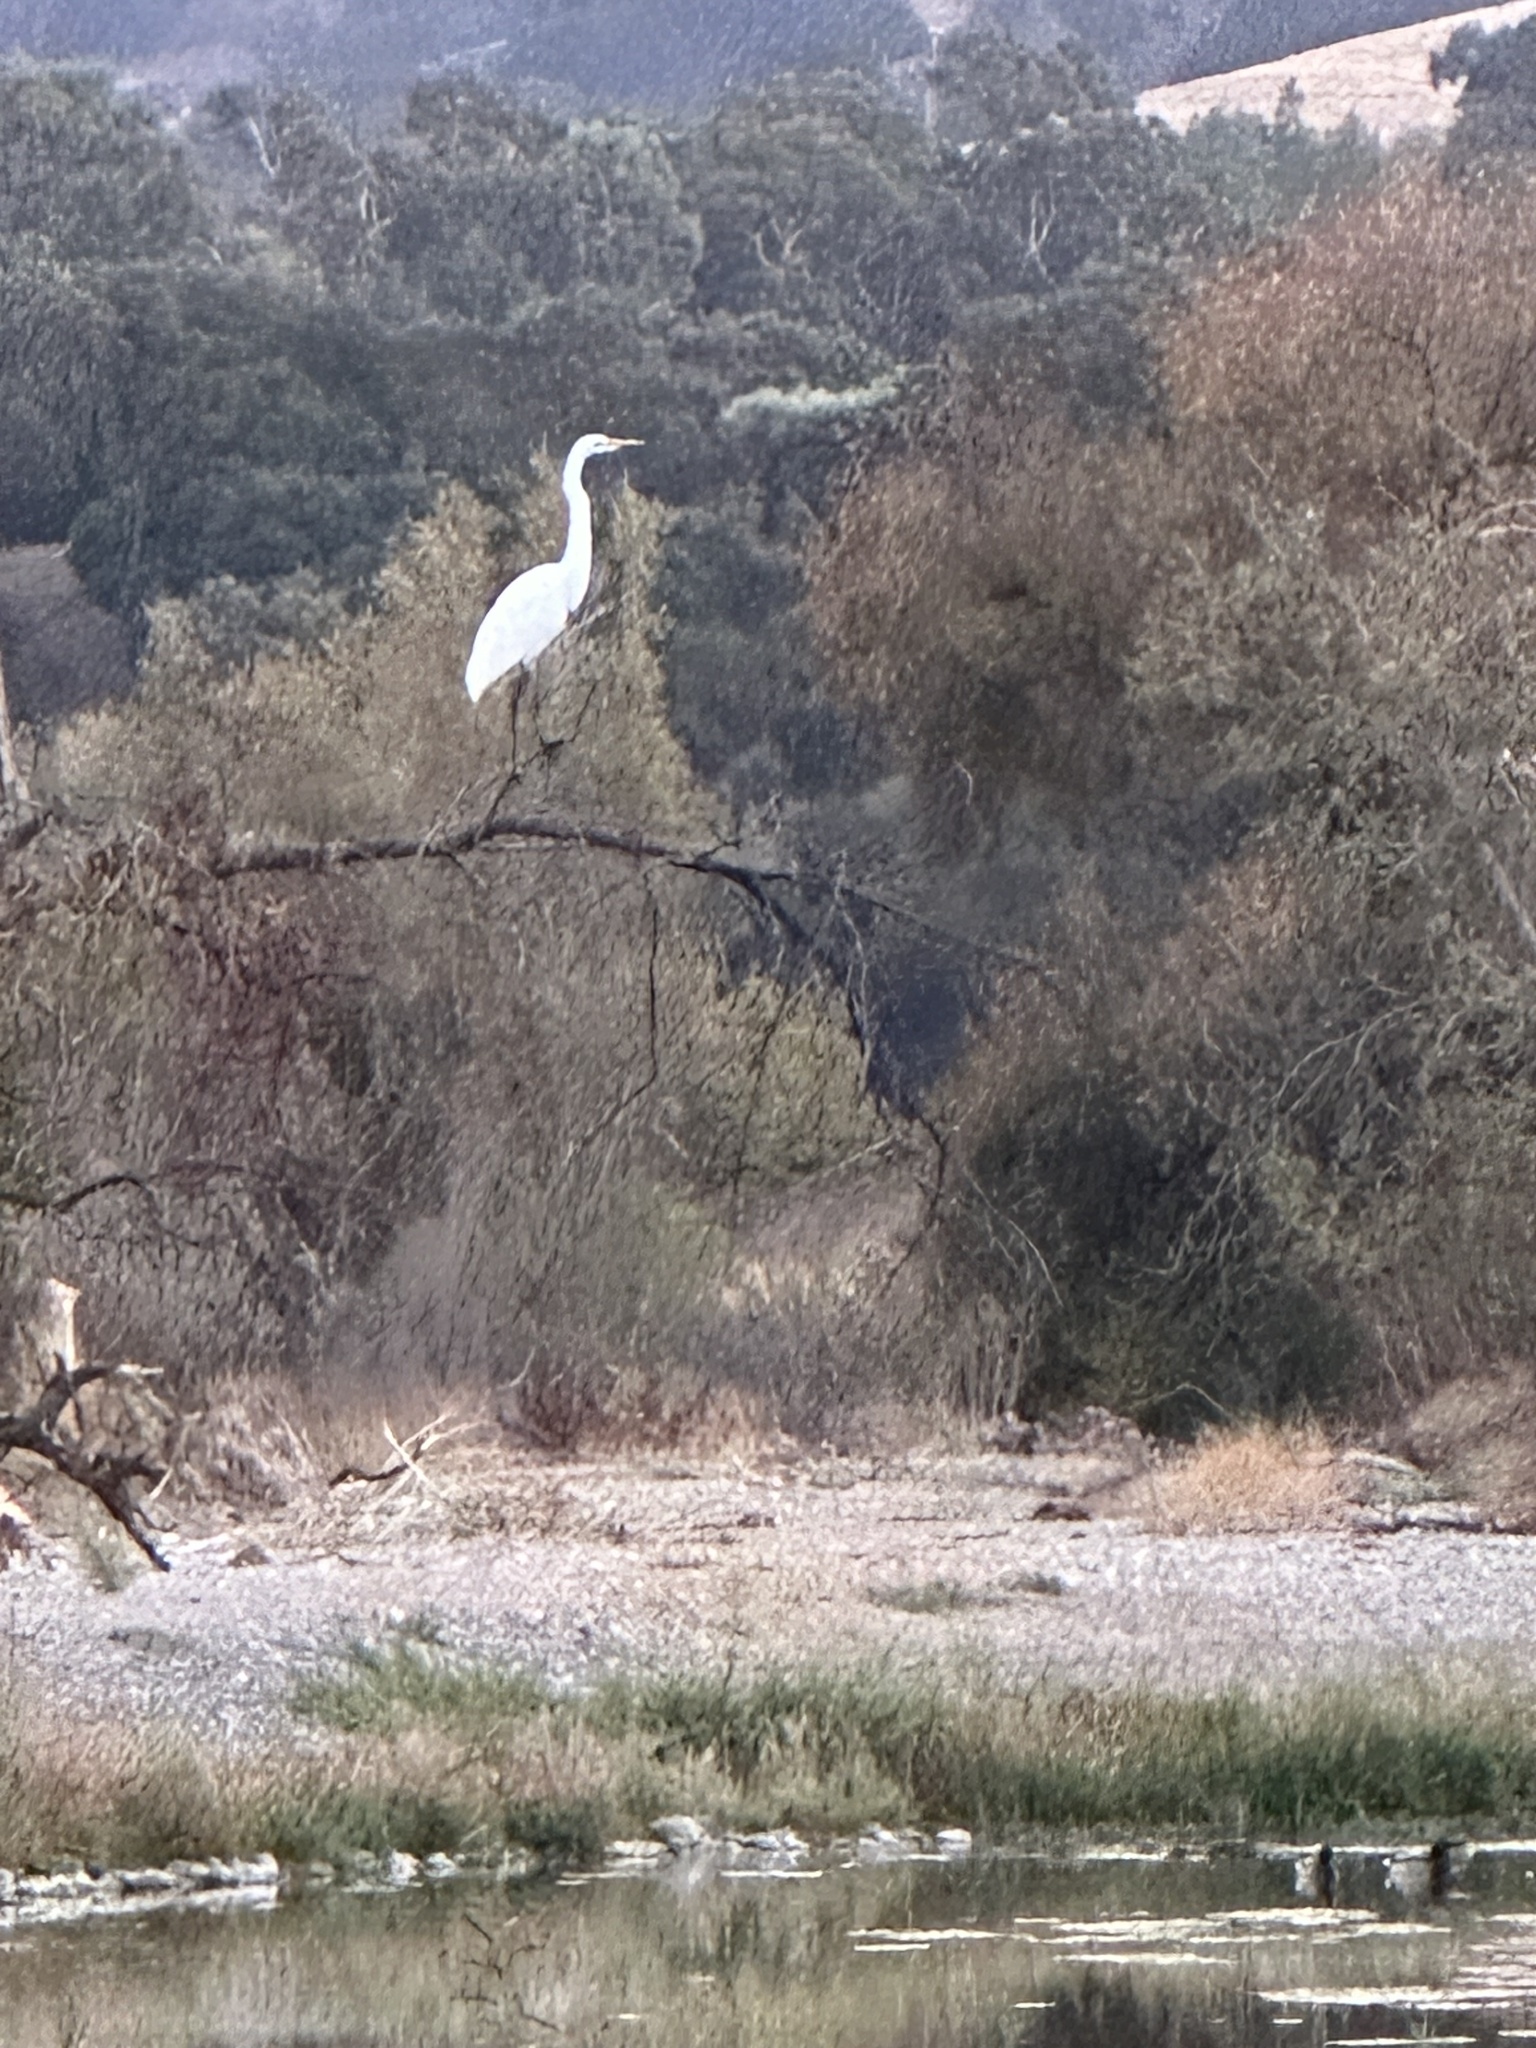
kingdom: Animalia
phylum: Chordata
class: Aves
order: Pelecaniformes
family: Ardeidae
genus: Ardea
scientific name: Ardea alba
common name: Great egret
